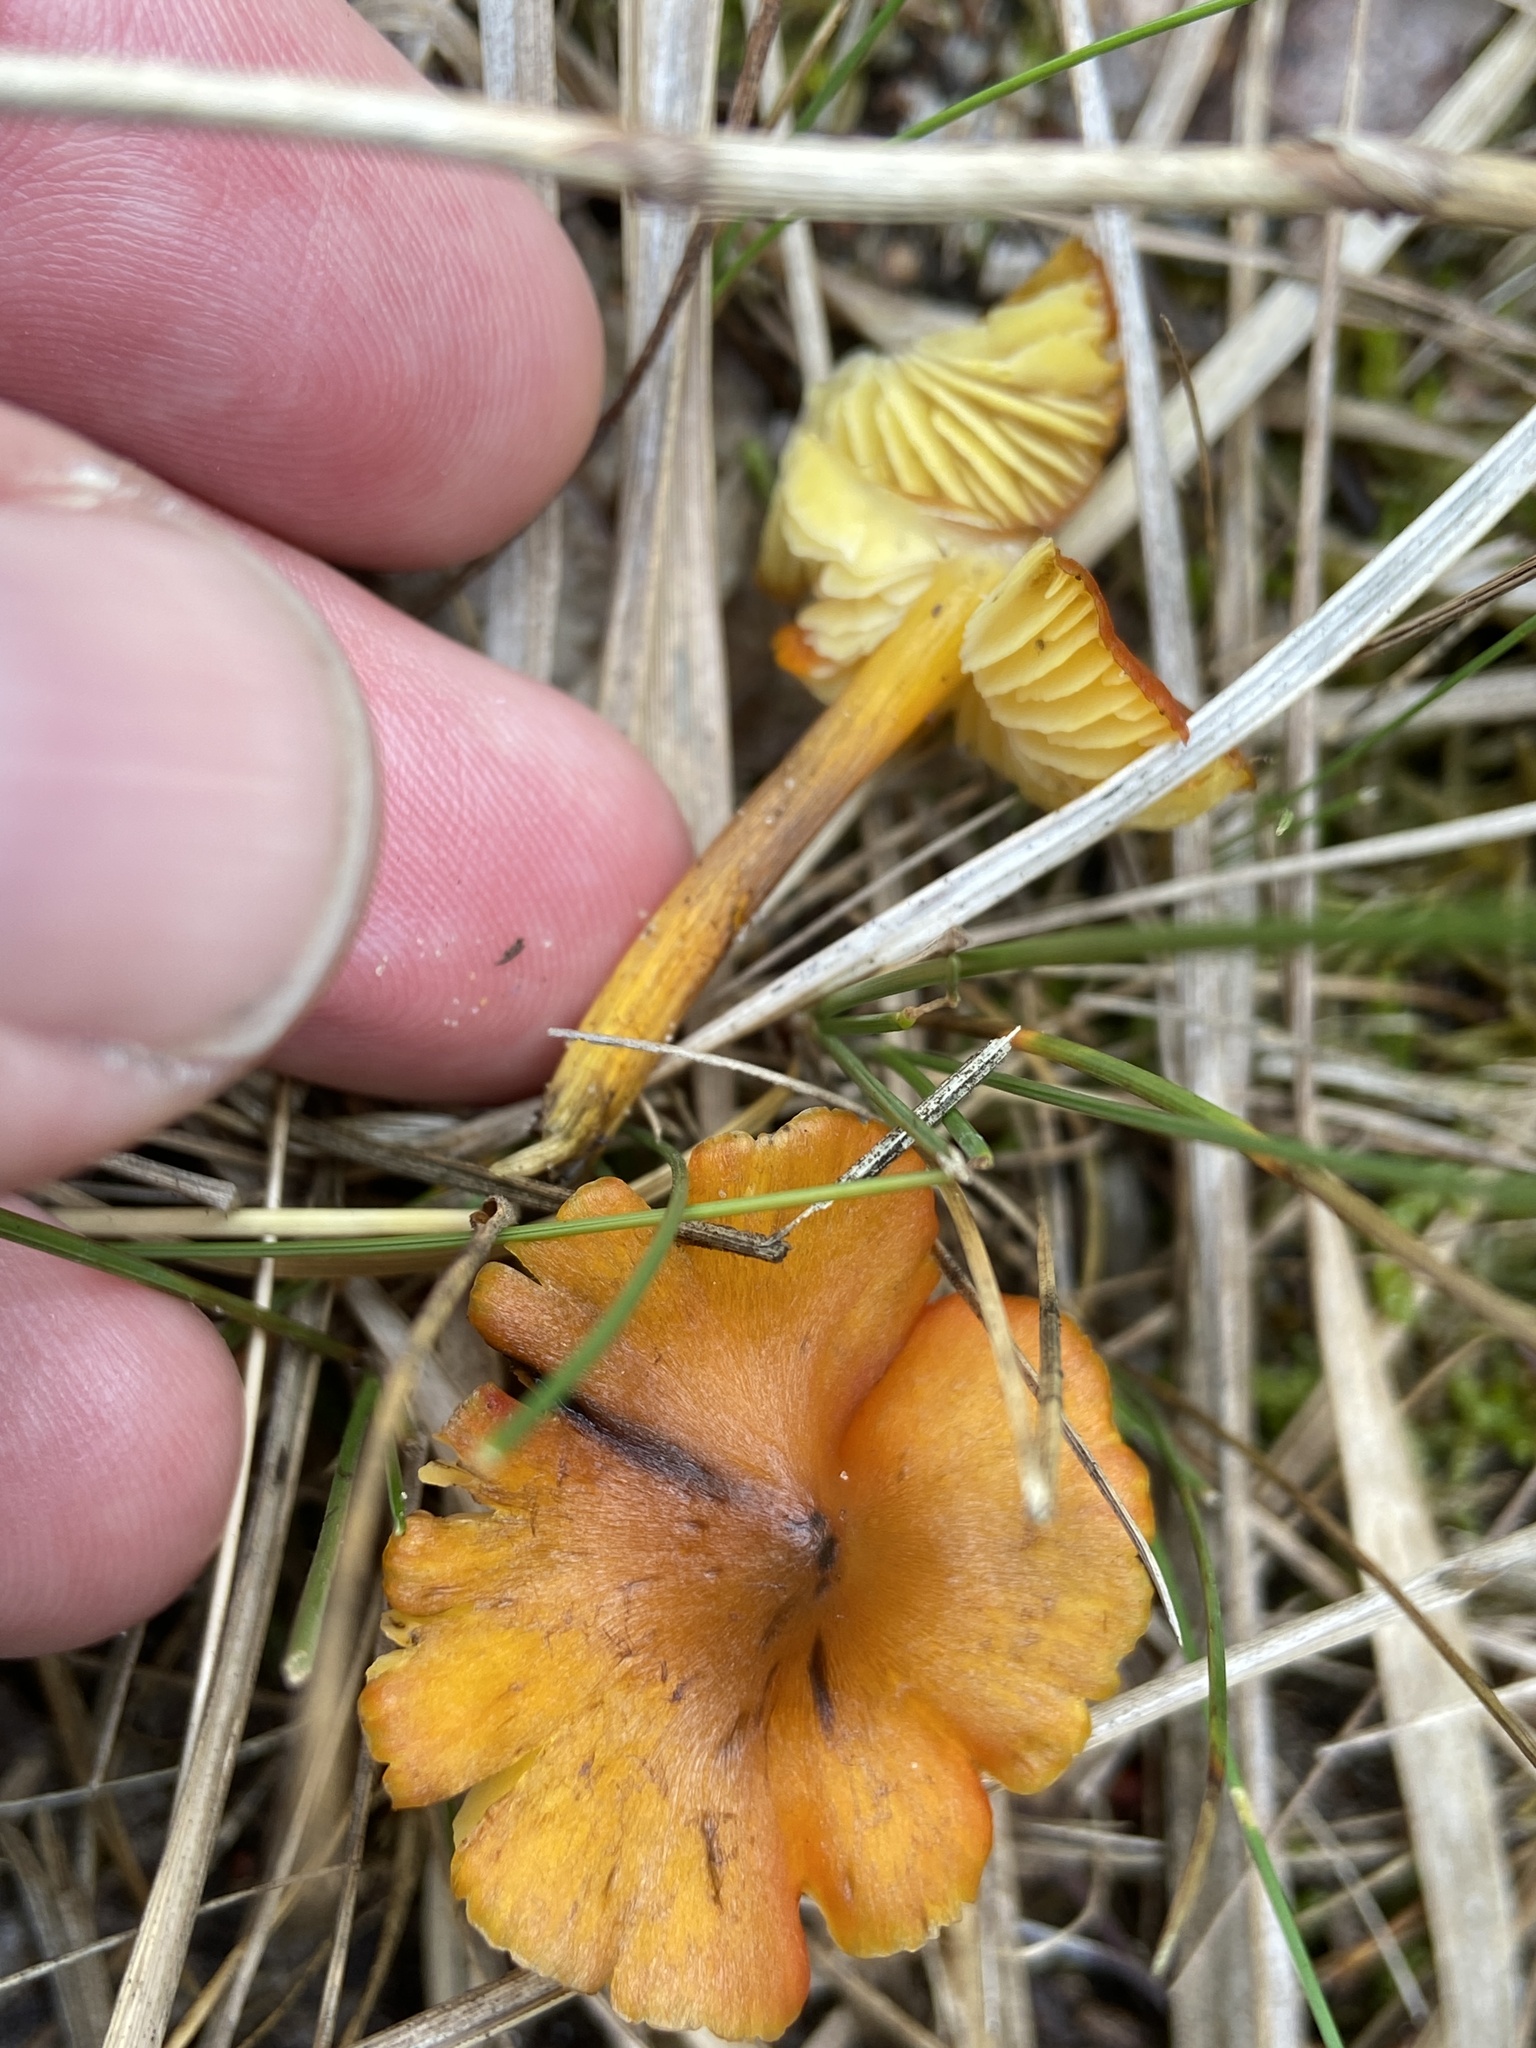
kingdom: Fungi
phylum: Basidiomycota
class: Agaricomycetes
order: Agaricales
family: Hygrophoraceae
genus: Hygrocybe
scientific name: Hygrocybe conica
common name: Blackening wax-cap
